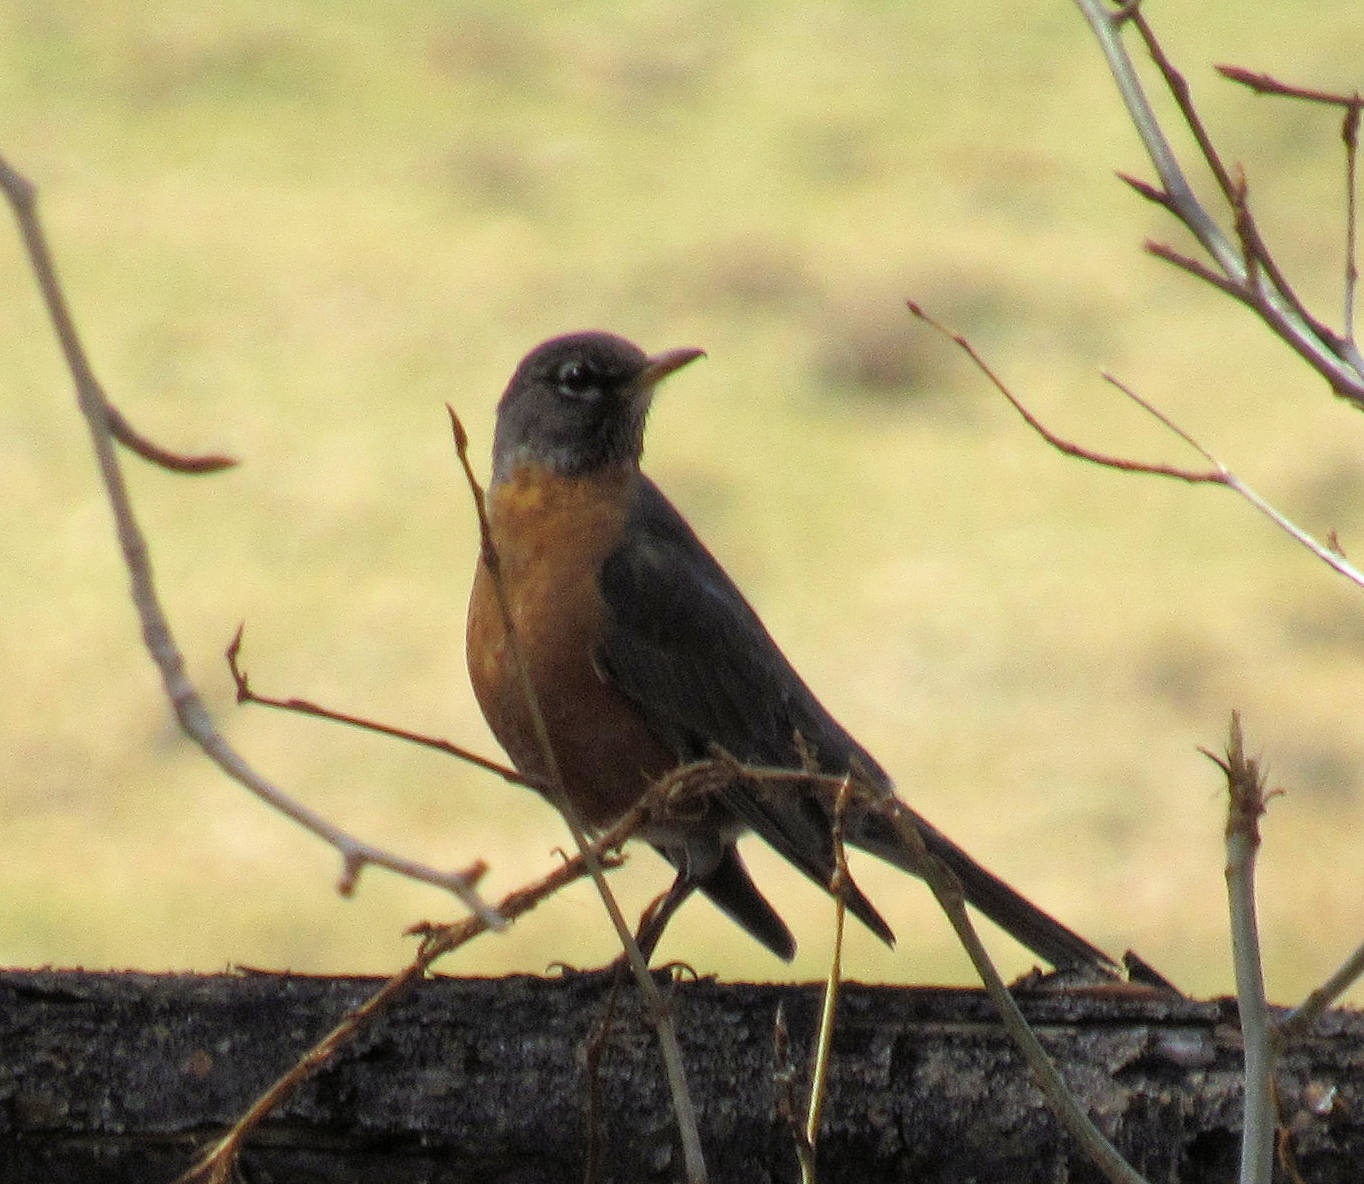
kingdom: Animalia
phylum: Chordata
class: Aves
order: Passeriformes
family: Turdidae
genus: Turdus
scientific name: Turdus migratorius
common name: American robin
